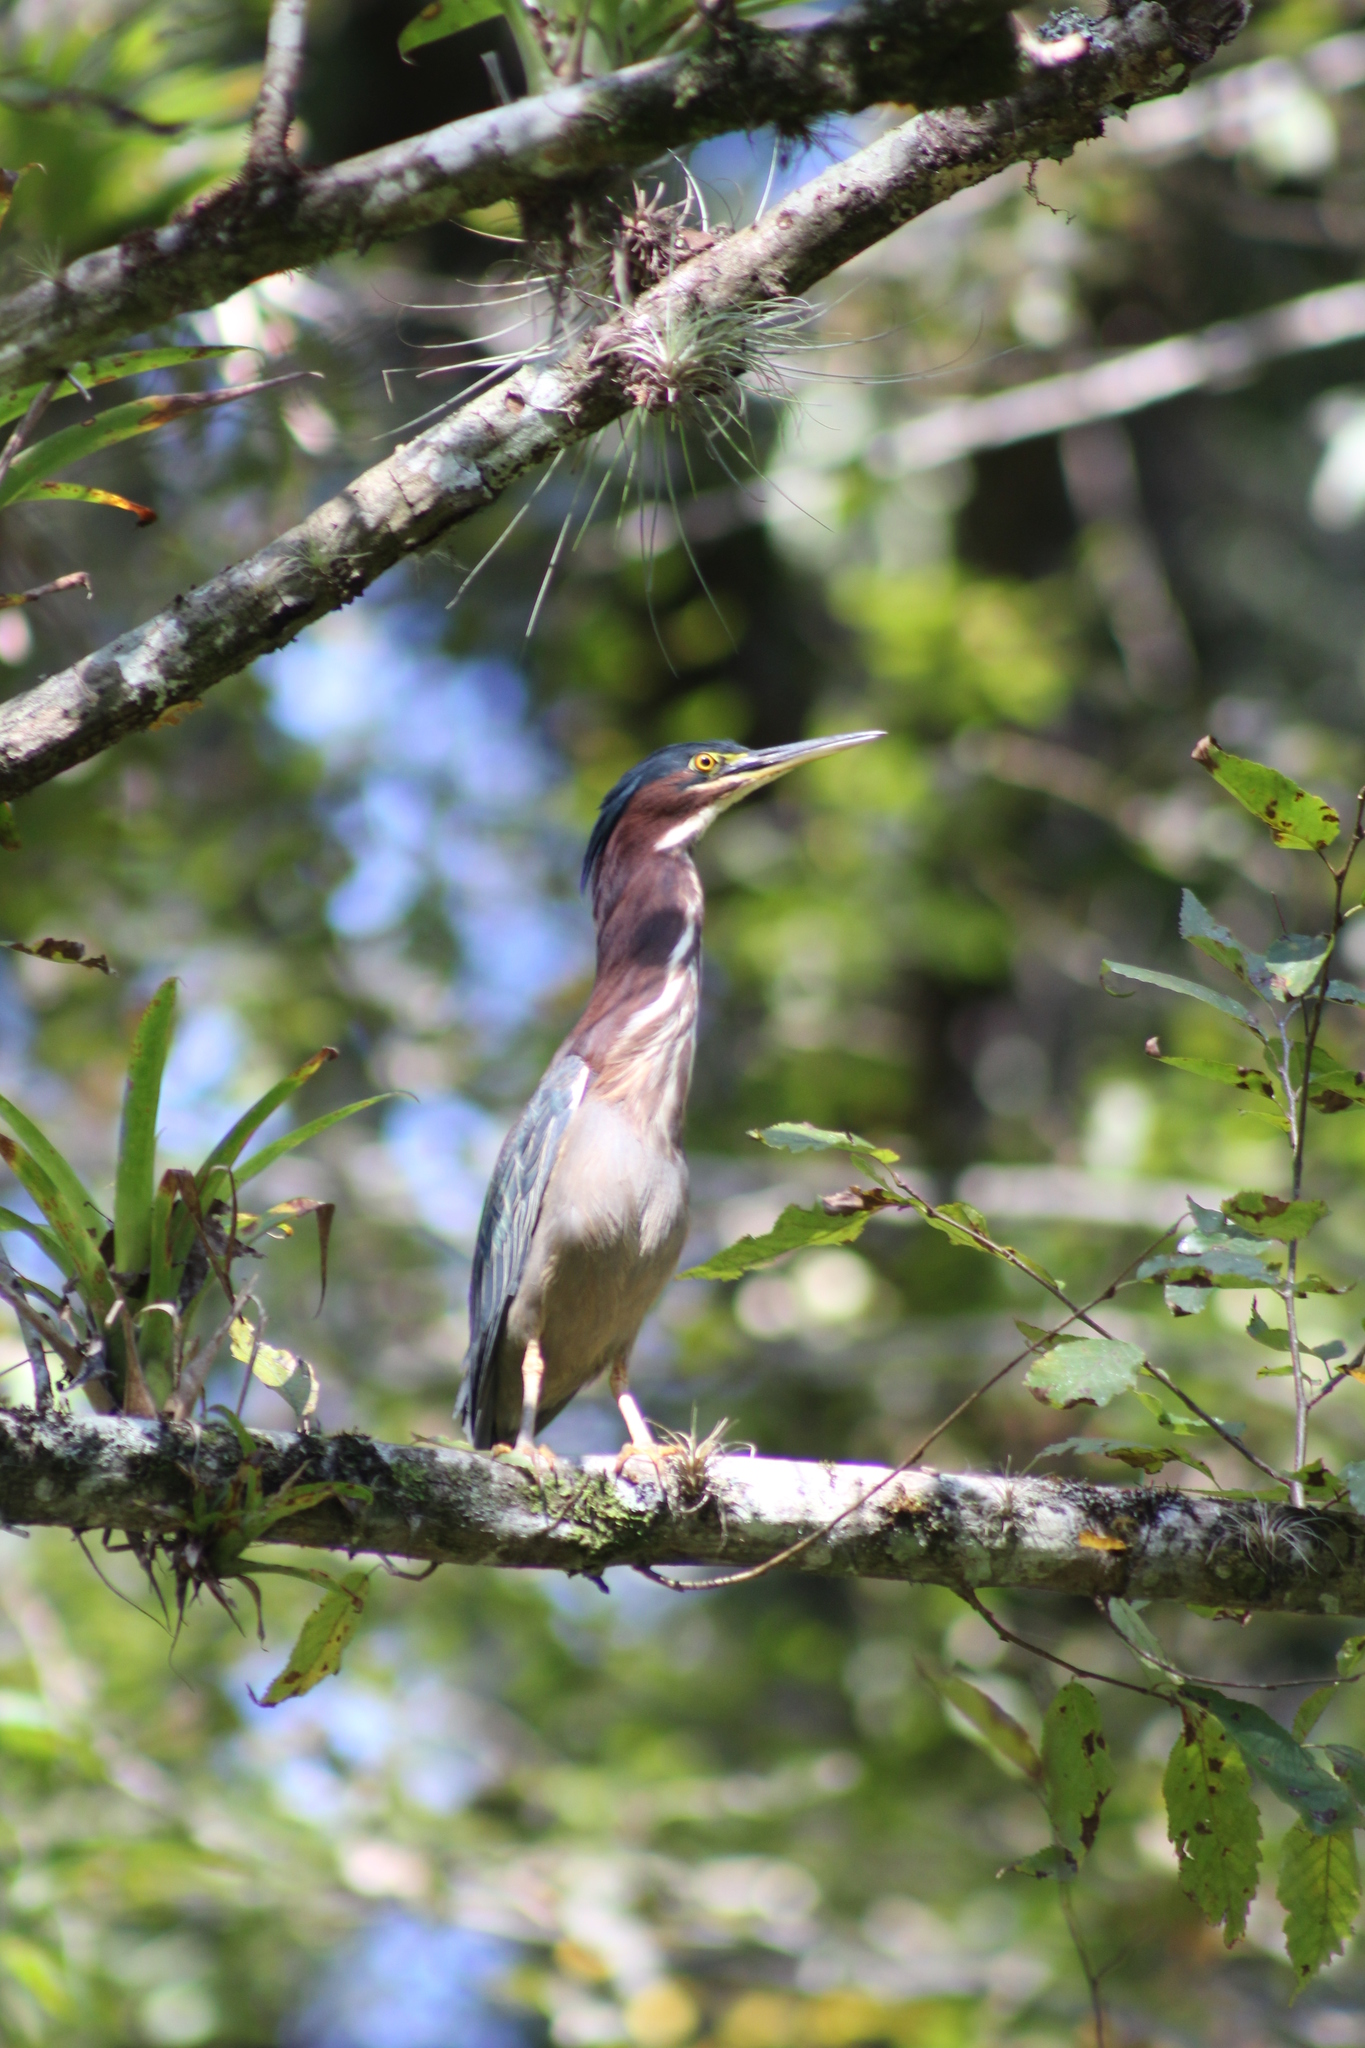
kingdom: Animalia
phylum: Chordata
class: Aves
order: Pelecaniformes
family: Ardeidae
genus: Butorides
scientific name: Butorides virescens
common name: Green heron
